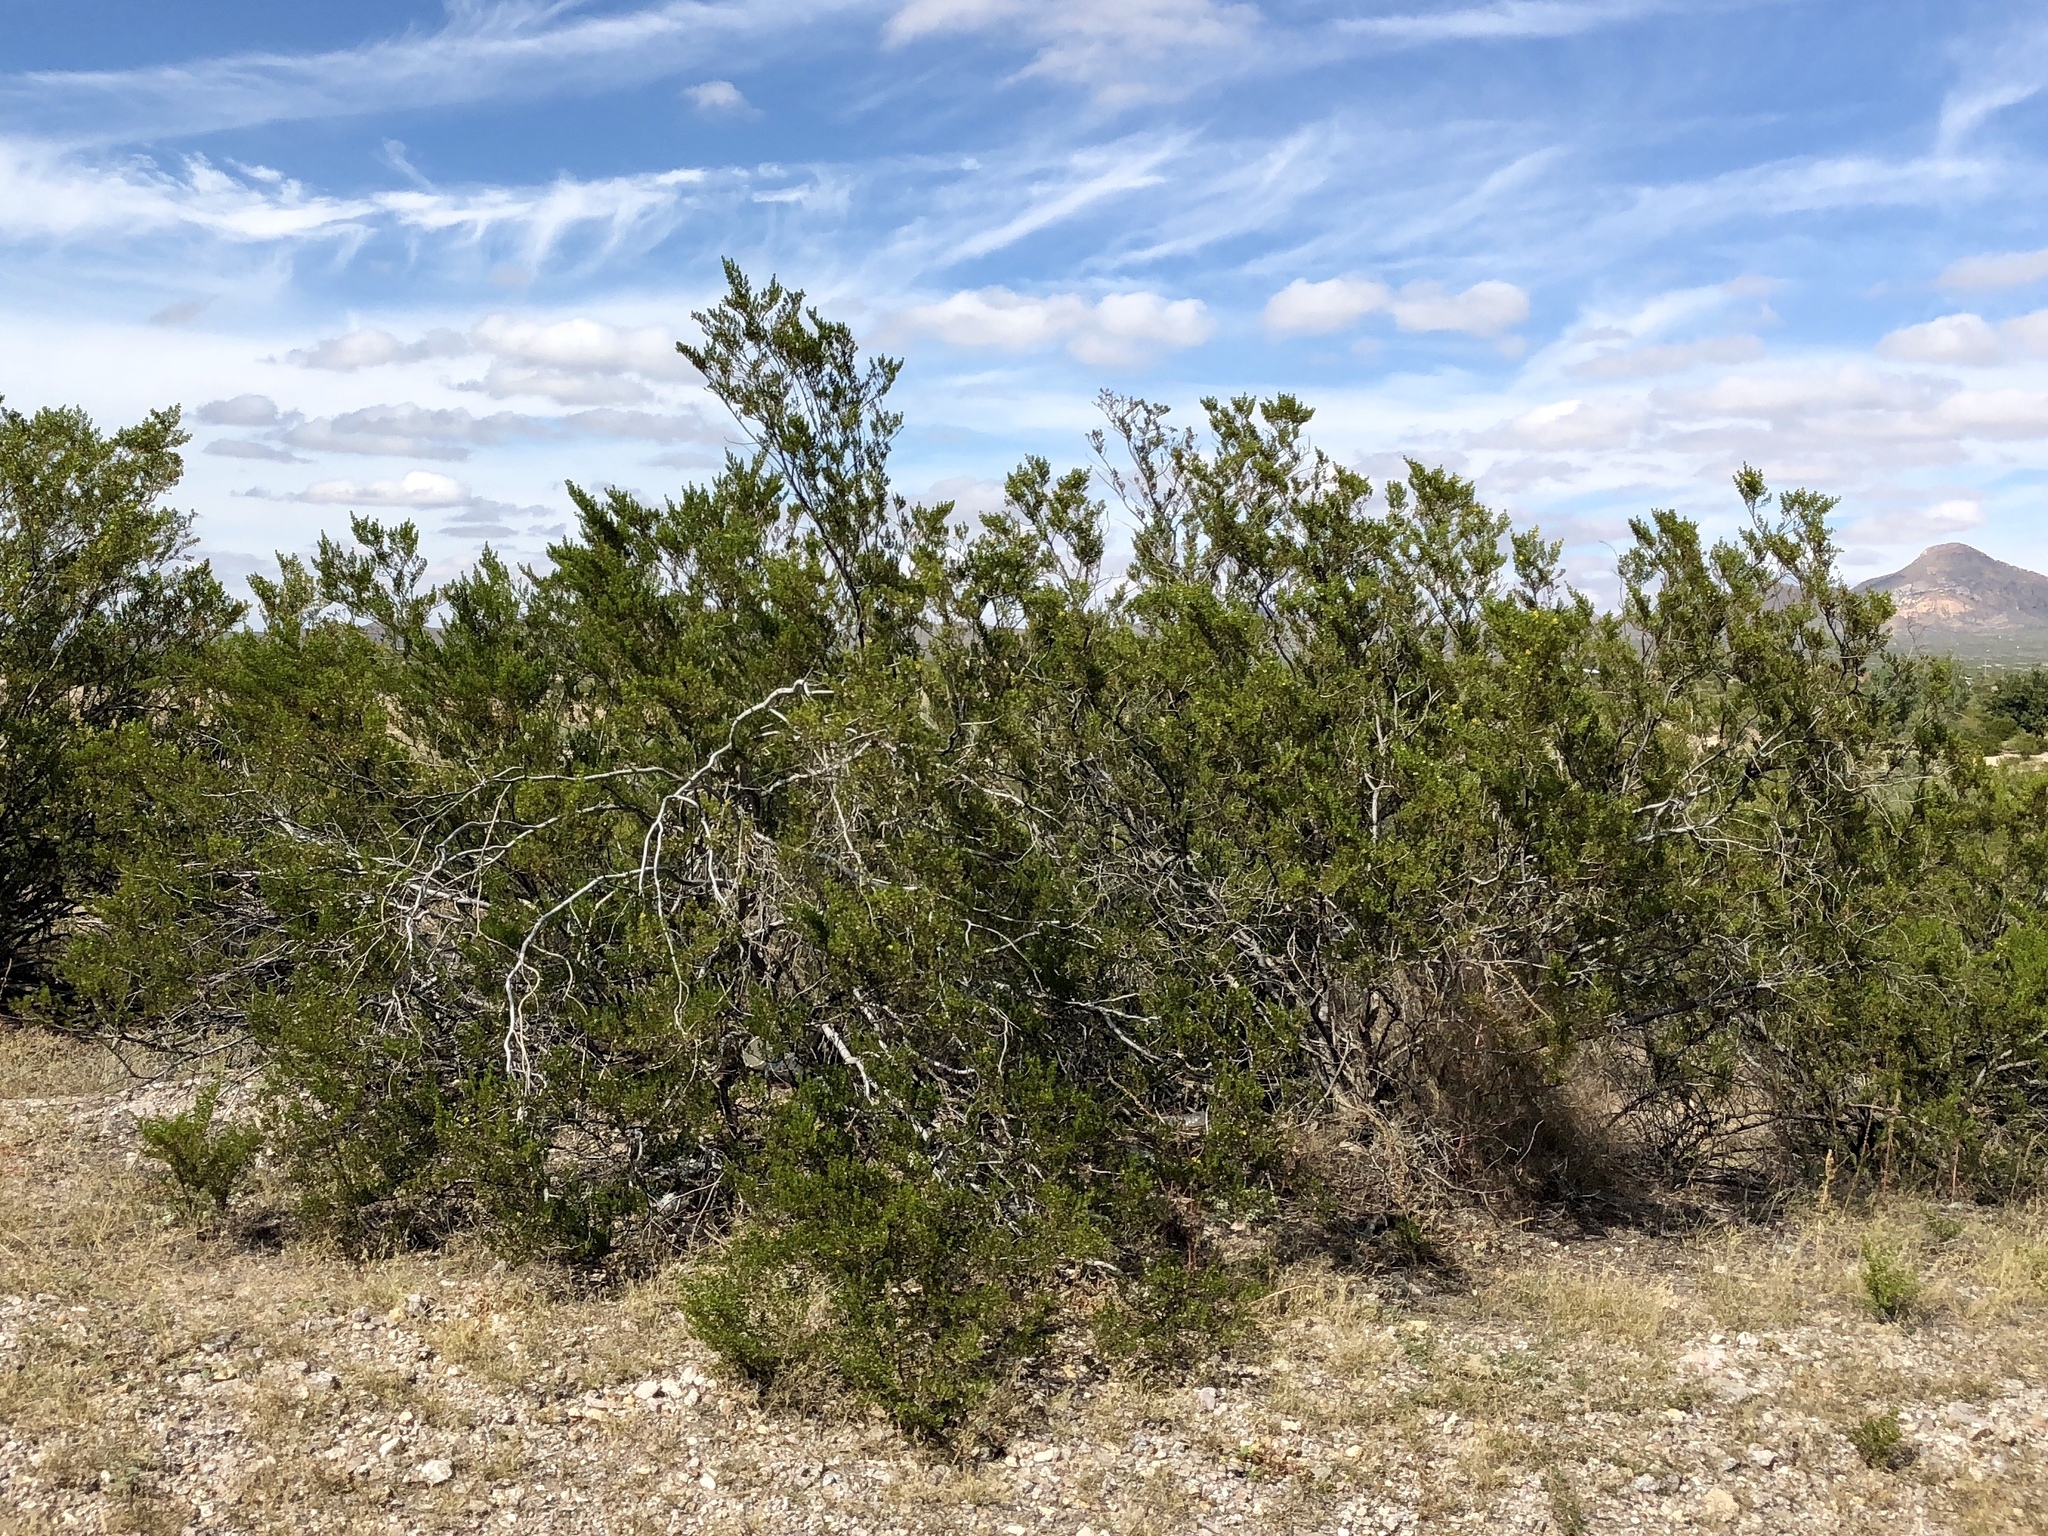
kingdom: Plantae
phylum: Tracheophyta
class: Magnoliopsida
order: Zygophyllales
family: Zygophyllaceae
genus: Larrea
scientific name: Larrea tridentata
